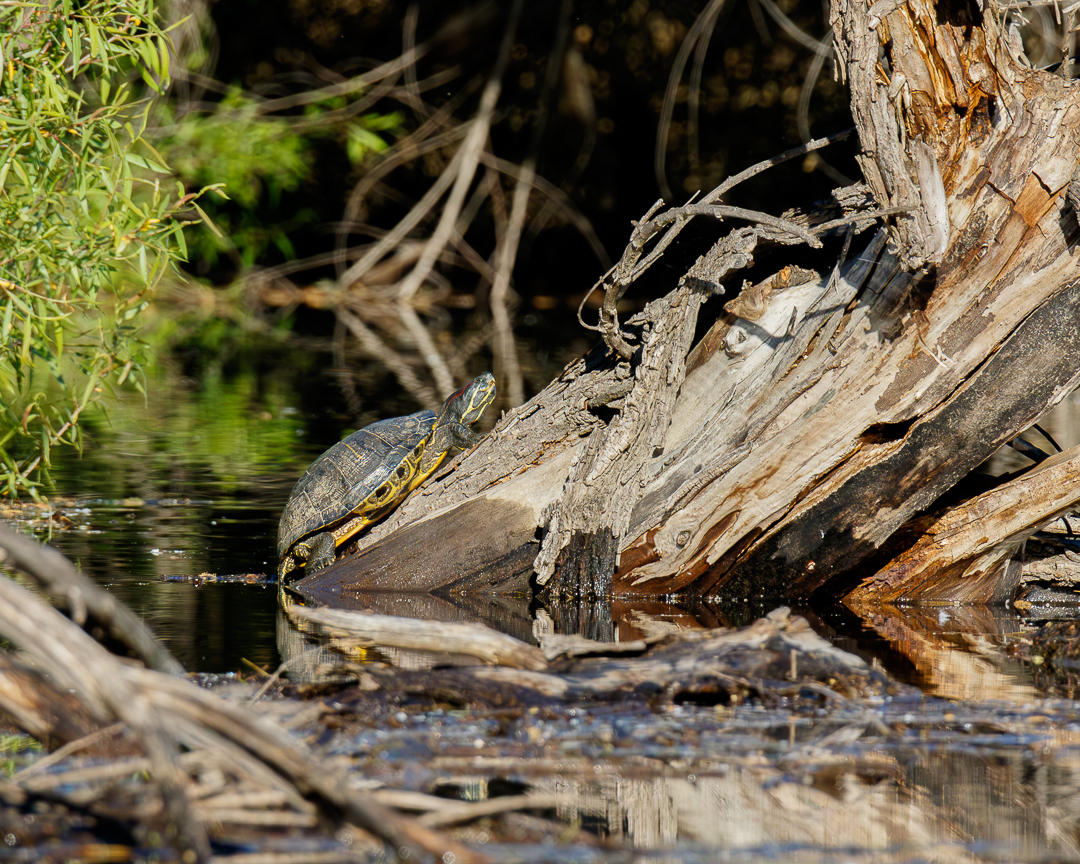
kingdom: Animalia
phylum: Chordata
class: Testudines
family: Emydidae
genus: Trachemys
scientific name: Trachemys scripta
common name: Slider
